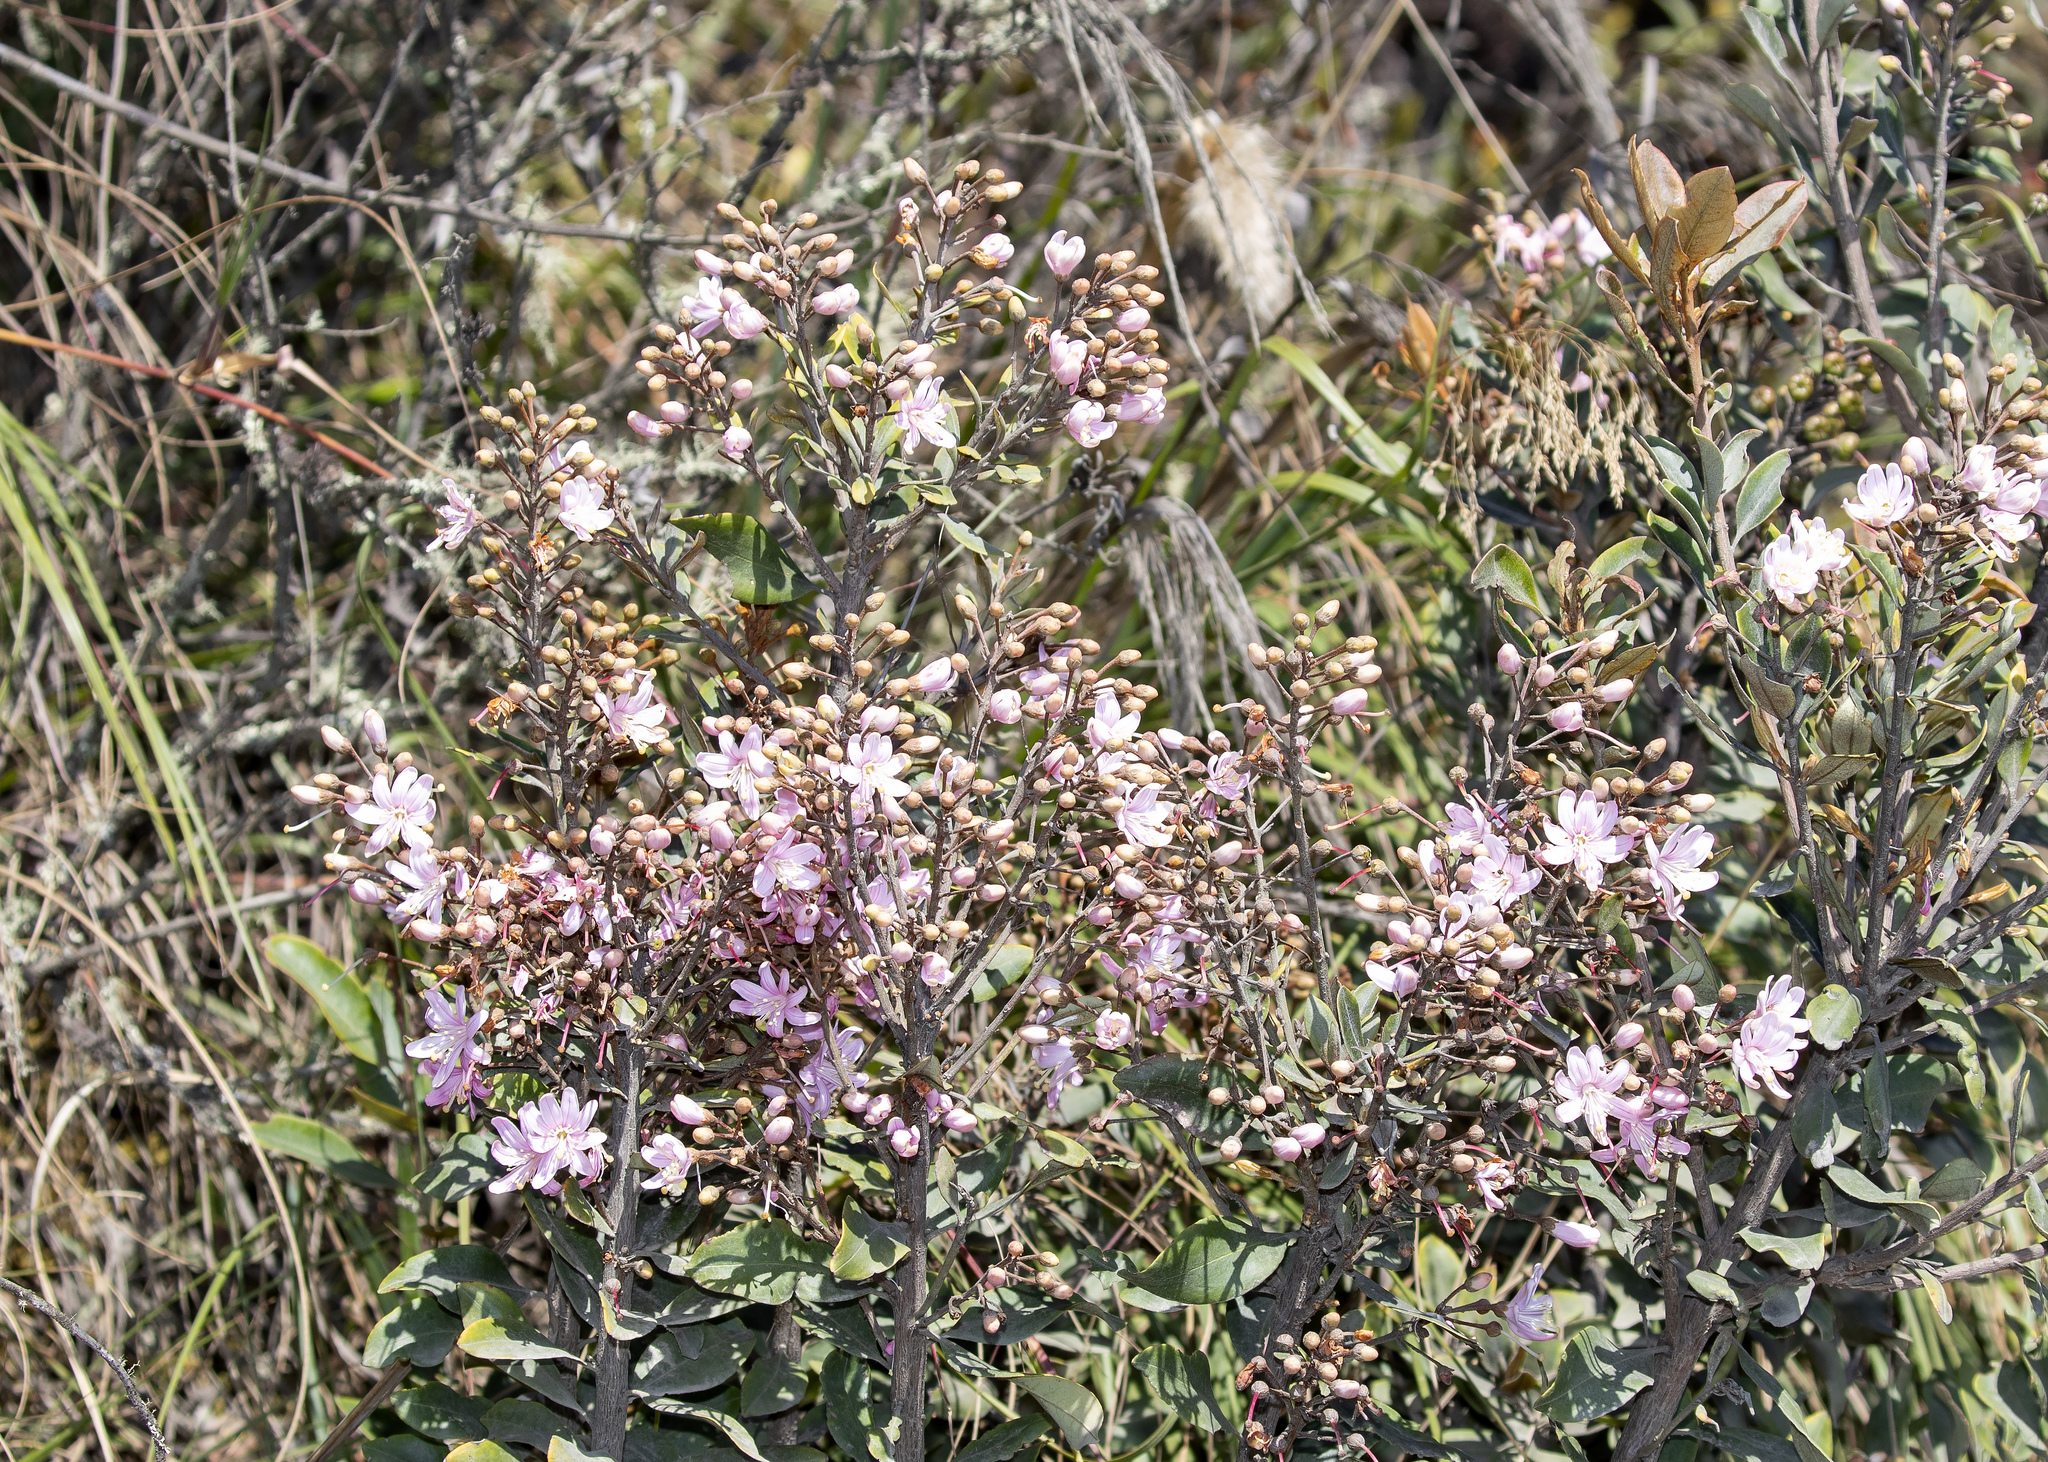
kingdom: Plantae
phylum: Tracheophyta
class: Magnoliopsida
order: Ericales
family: Ericaceae
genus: Bejaria
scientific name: Bejaria aestuans
